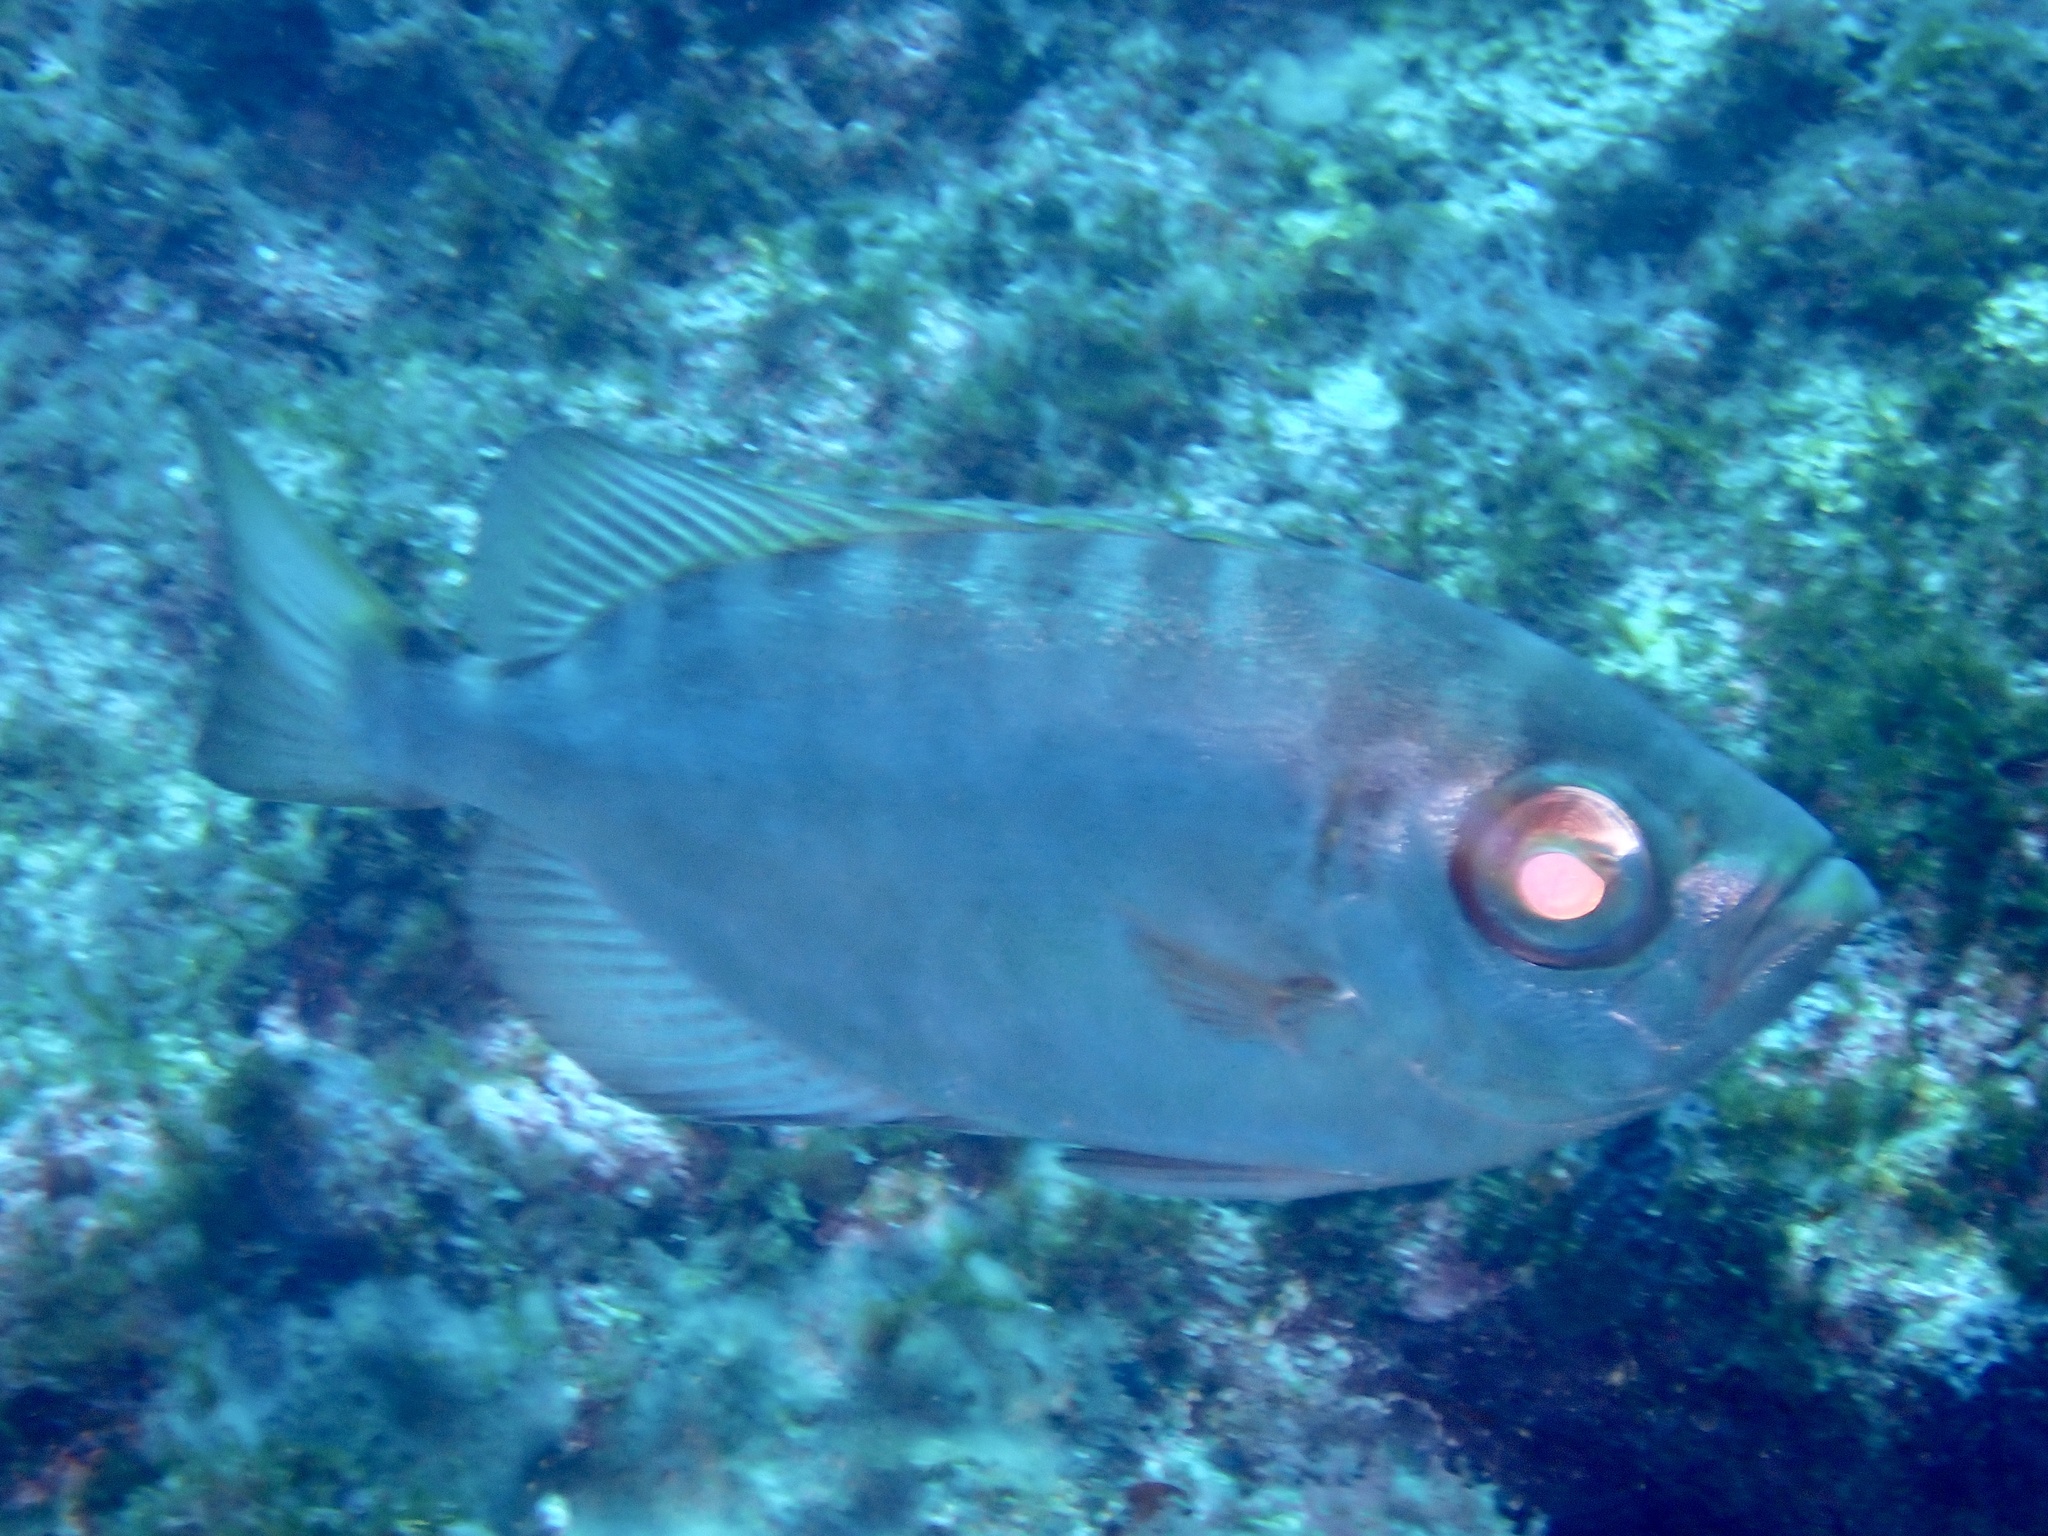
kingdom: Animalia
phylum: Chordata
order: Perciformes
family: Priacanthidae
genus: Heteropriacanthus
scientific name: Heteropriacanthus fulgens
